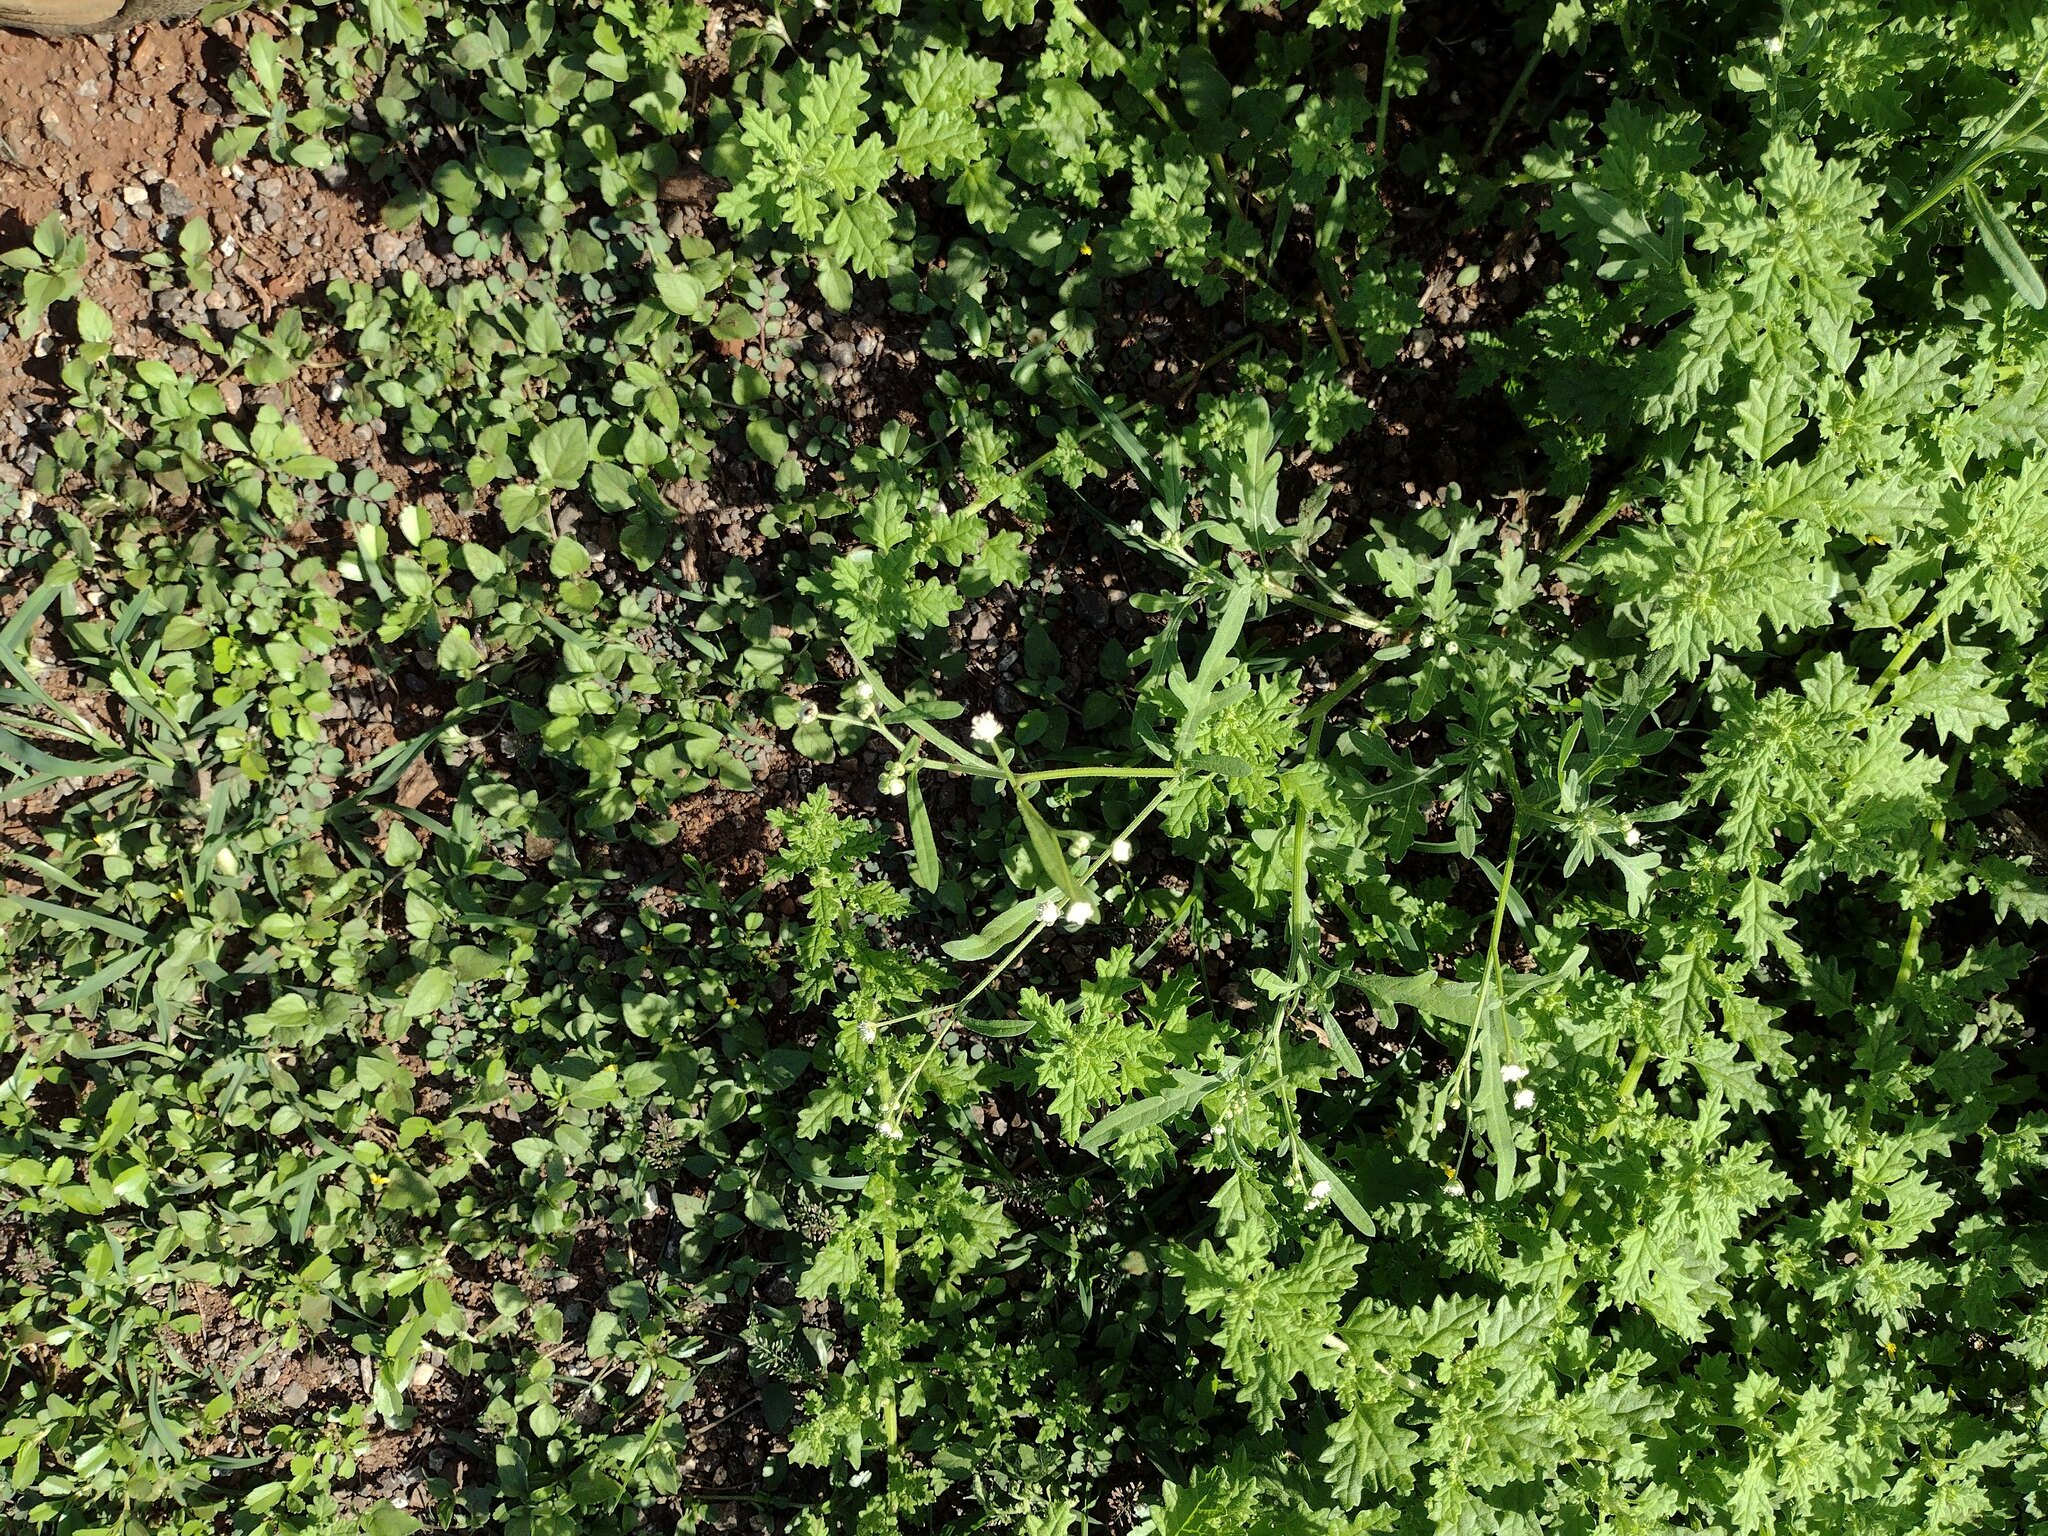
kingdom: Plantae
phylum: Tracheophyta
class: Magnoliopsida
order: Asterales
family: Asteraceae
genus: Parthenium
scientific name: Parthenium hysterophorus
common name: Santa maria feverfew
